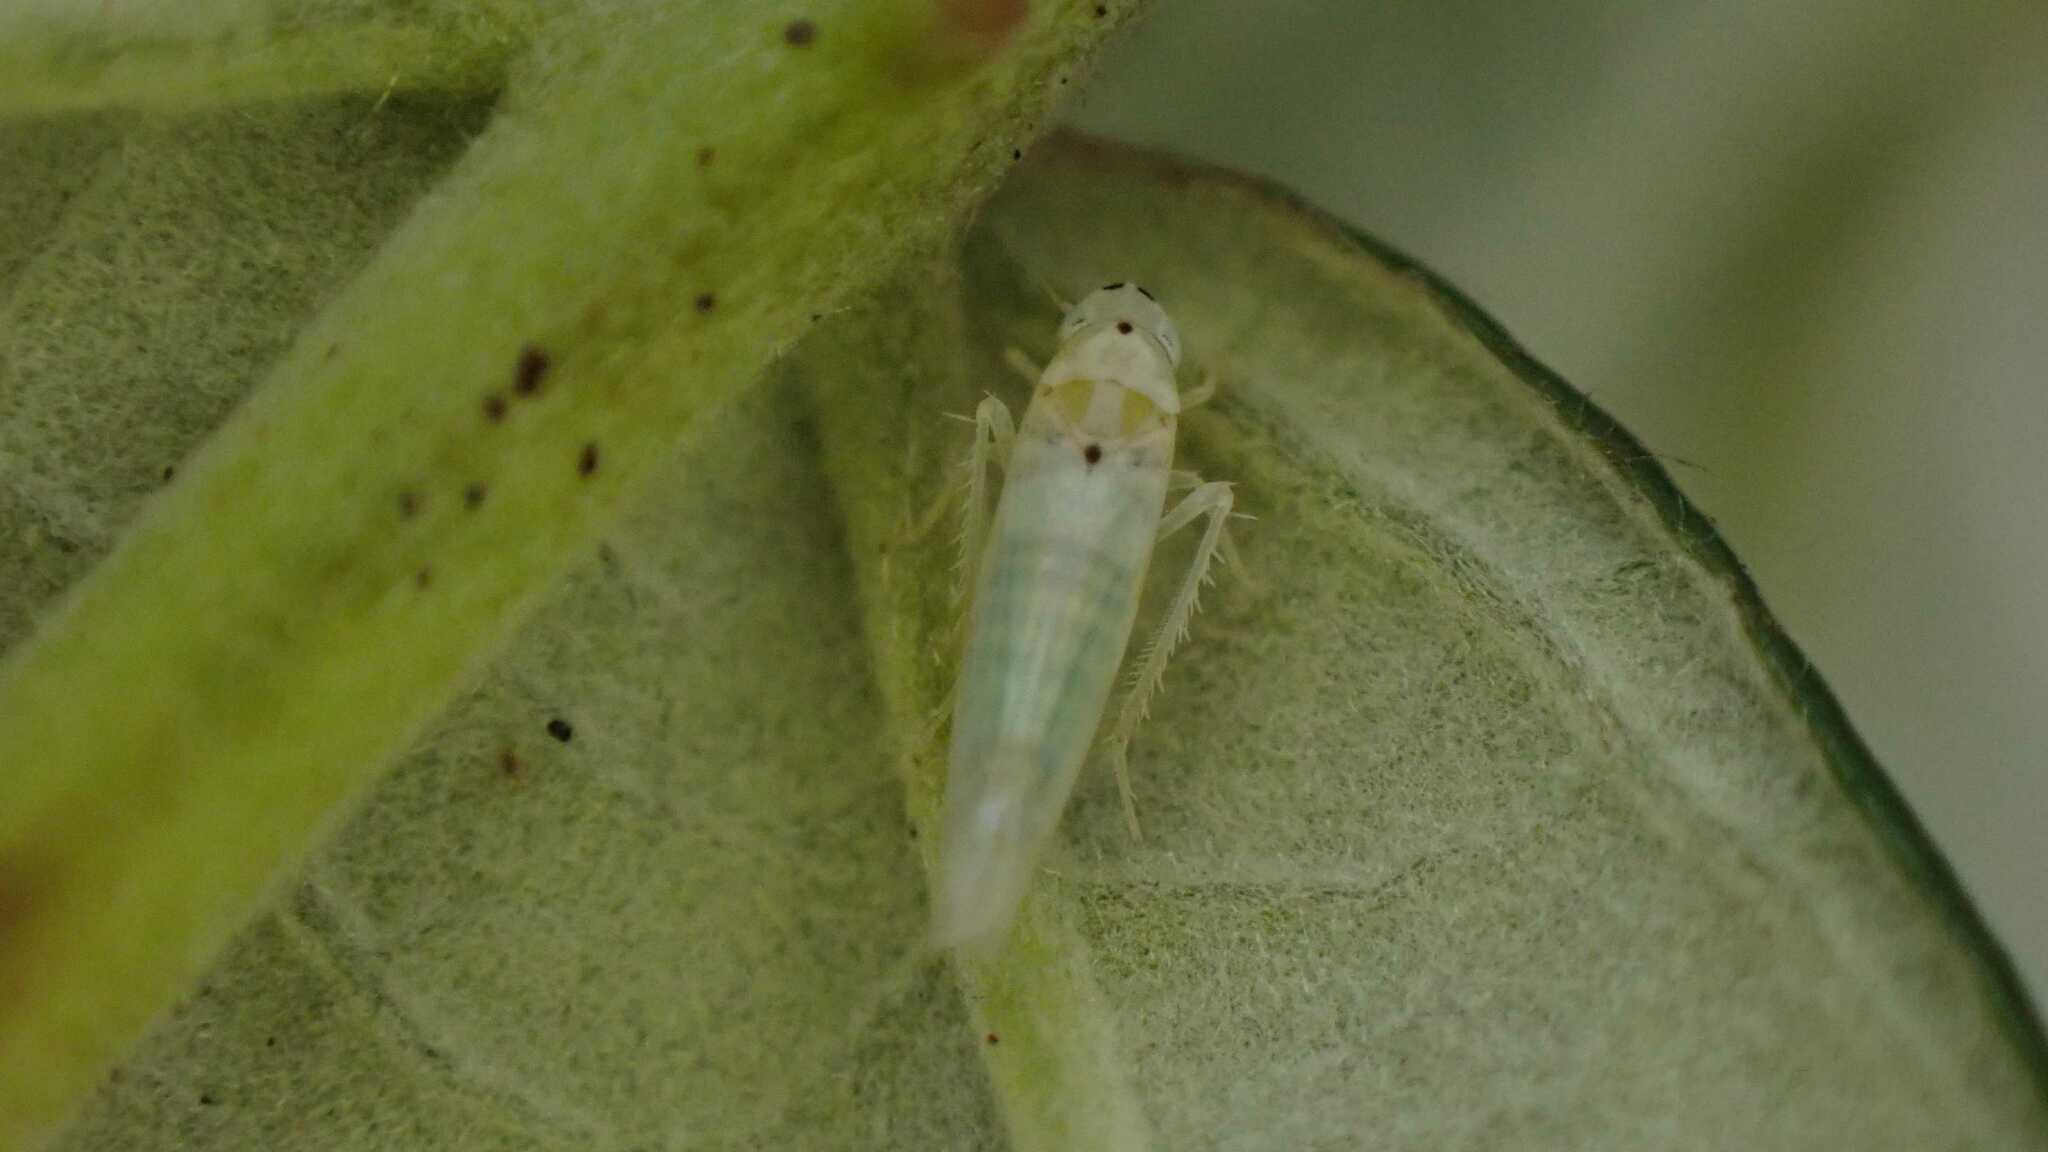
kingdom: Animalia
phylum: Arthropoda
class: Insecta
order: Hemiptera
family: Cicadellidae
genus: Ribautiana
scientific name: Ribautiana debilis
